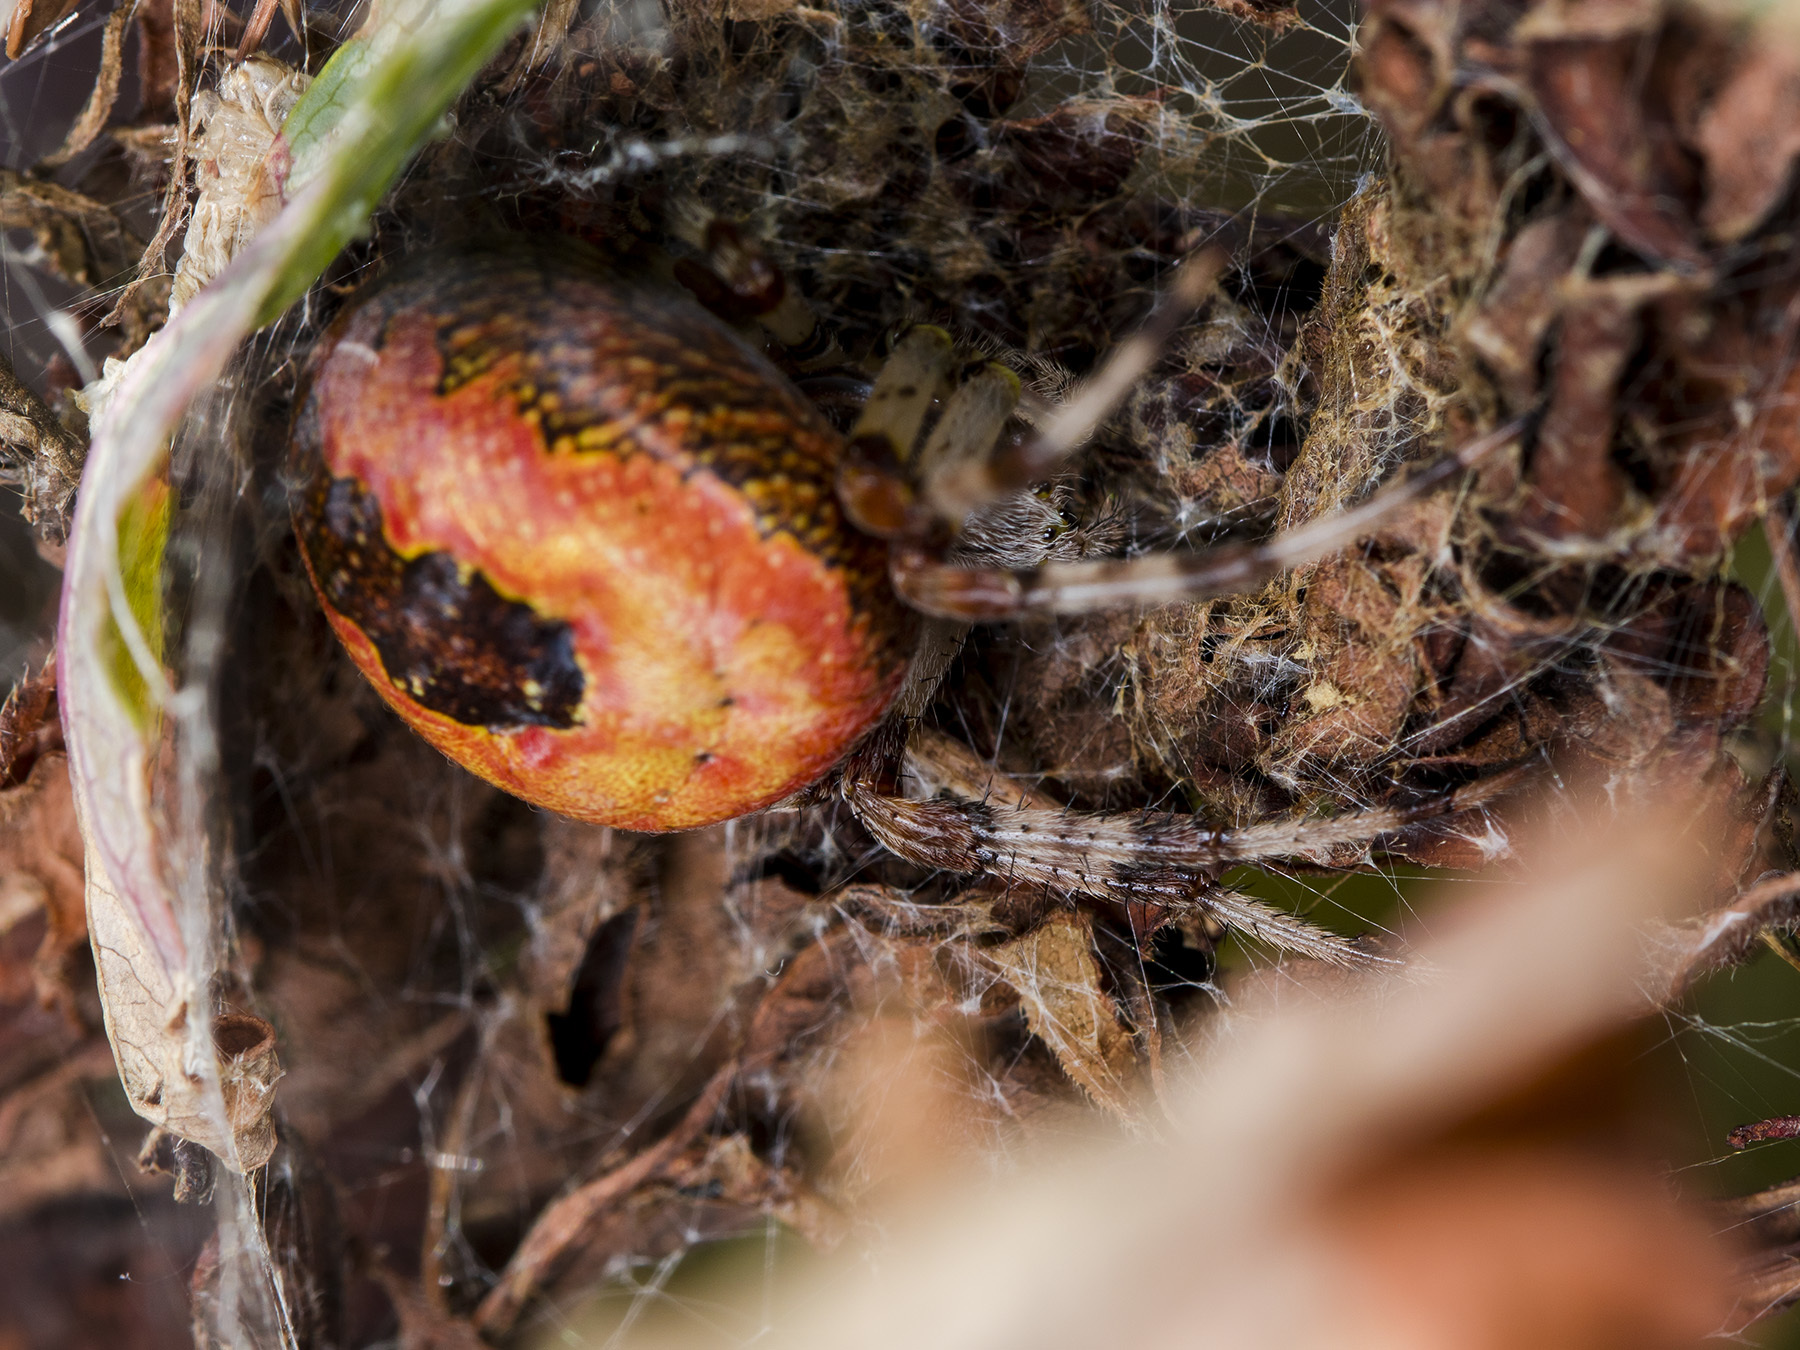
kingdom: Animalia
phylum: Arthropoda
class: Arachnida
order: Araneae
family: Araneidae
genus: Araneus
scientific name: Araneus marmoreus
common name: Marbled orbweaver
